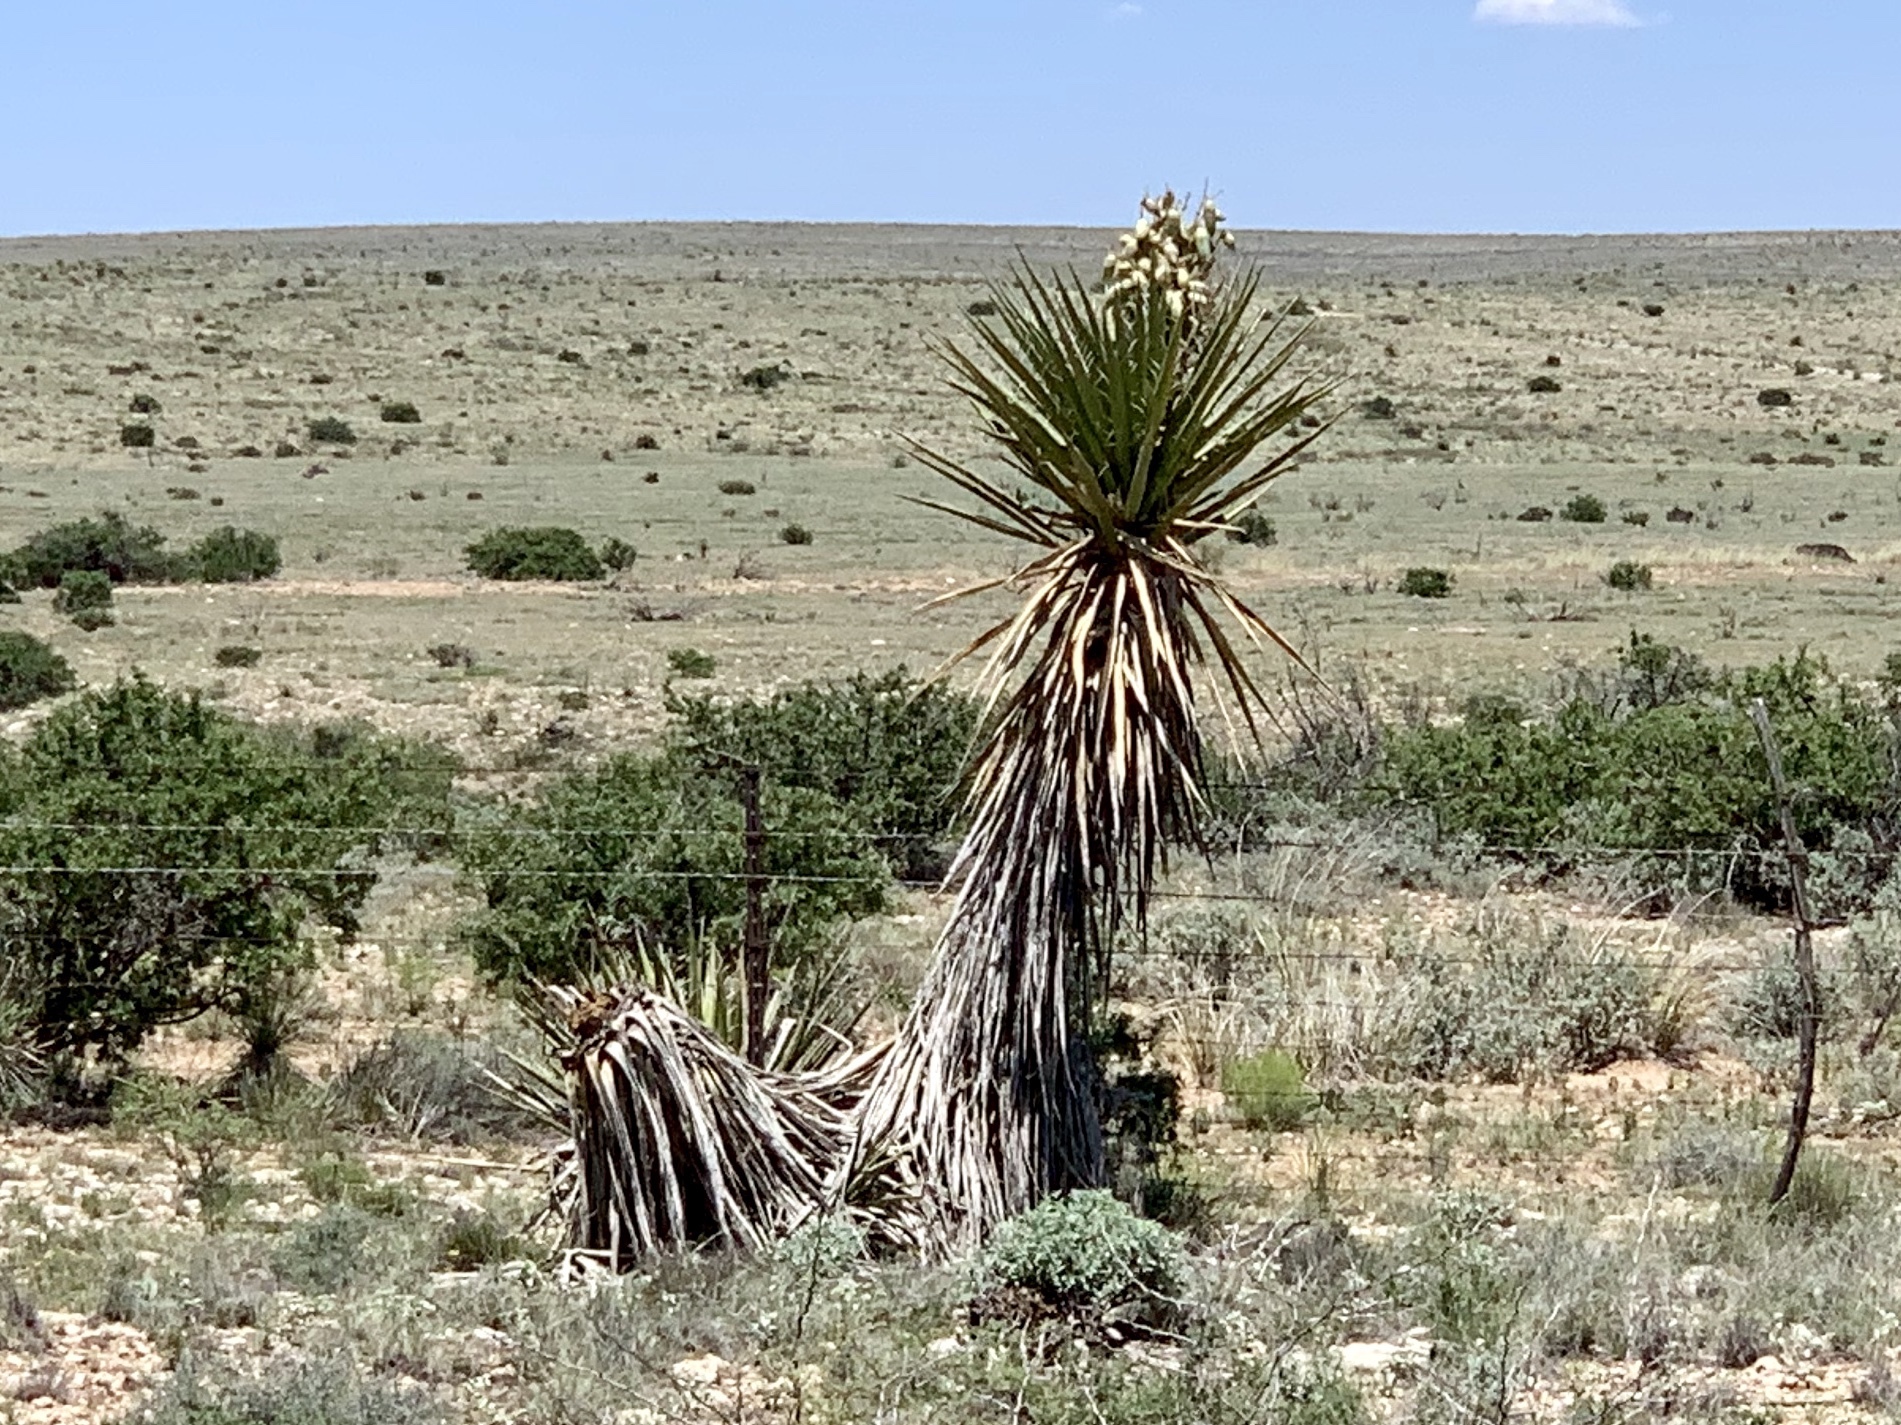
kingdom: Plantae
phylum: Tracheophyta
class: Liliopsida
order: Asparagales
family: Asparagaceae
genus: Yucca
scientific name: Yucca treculiana
